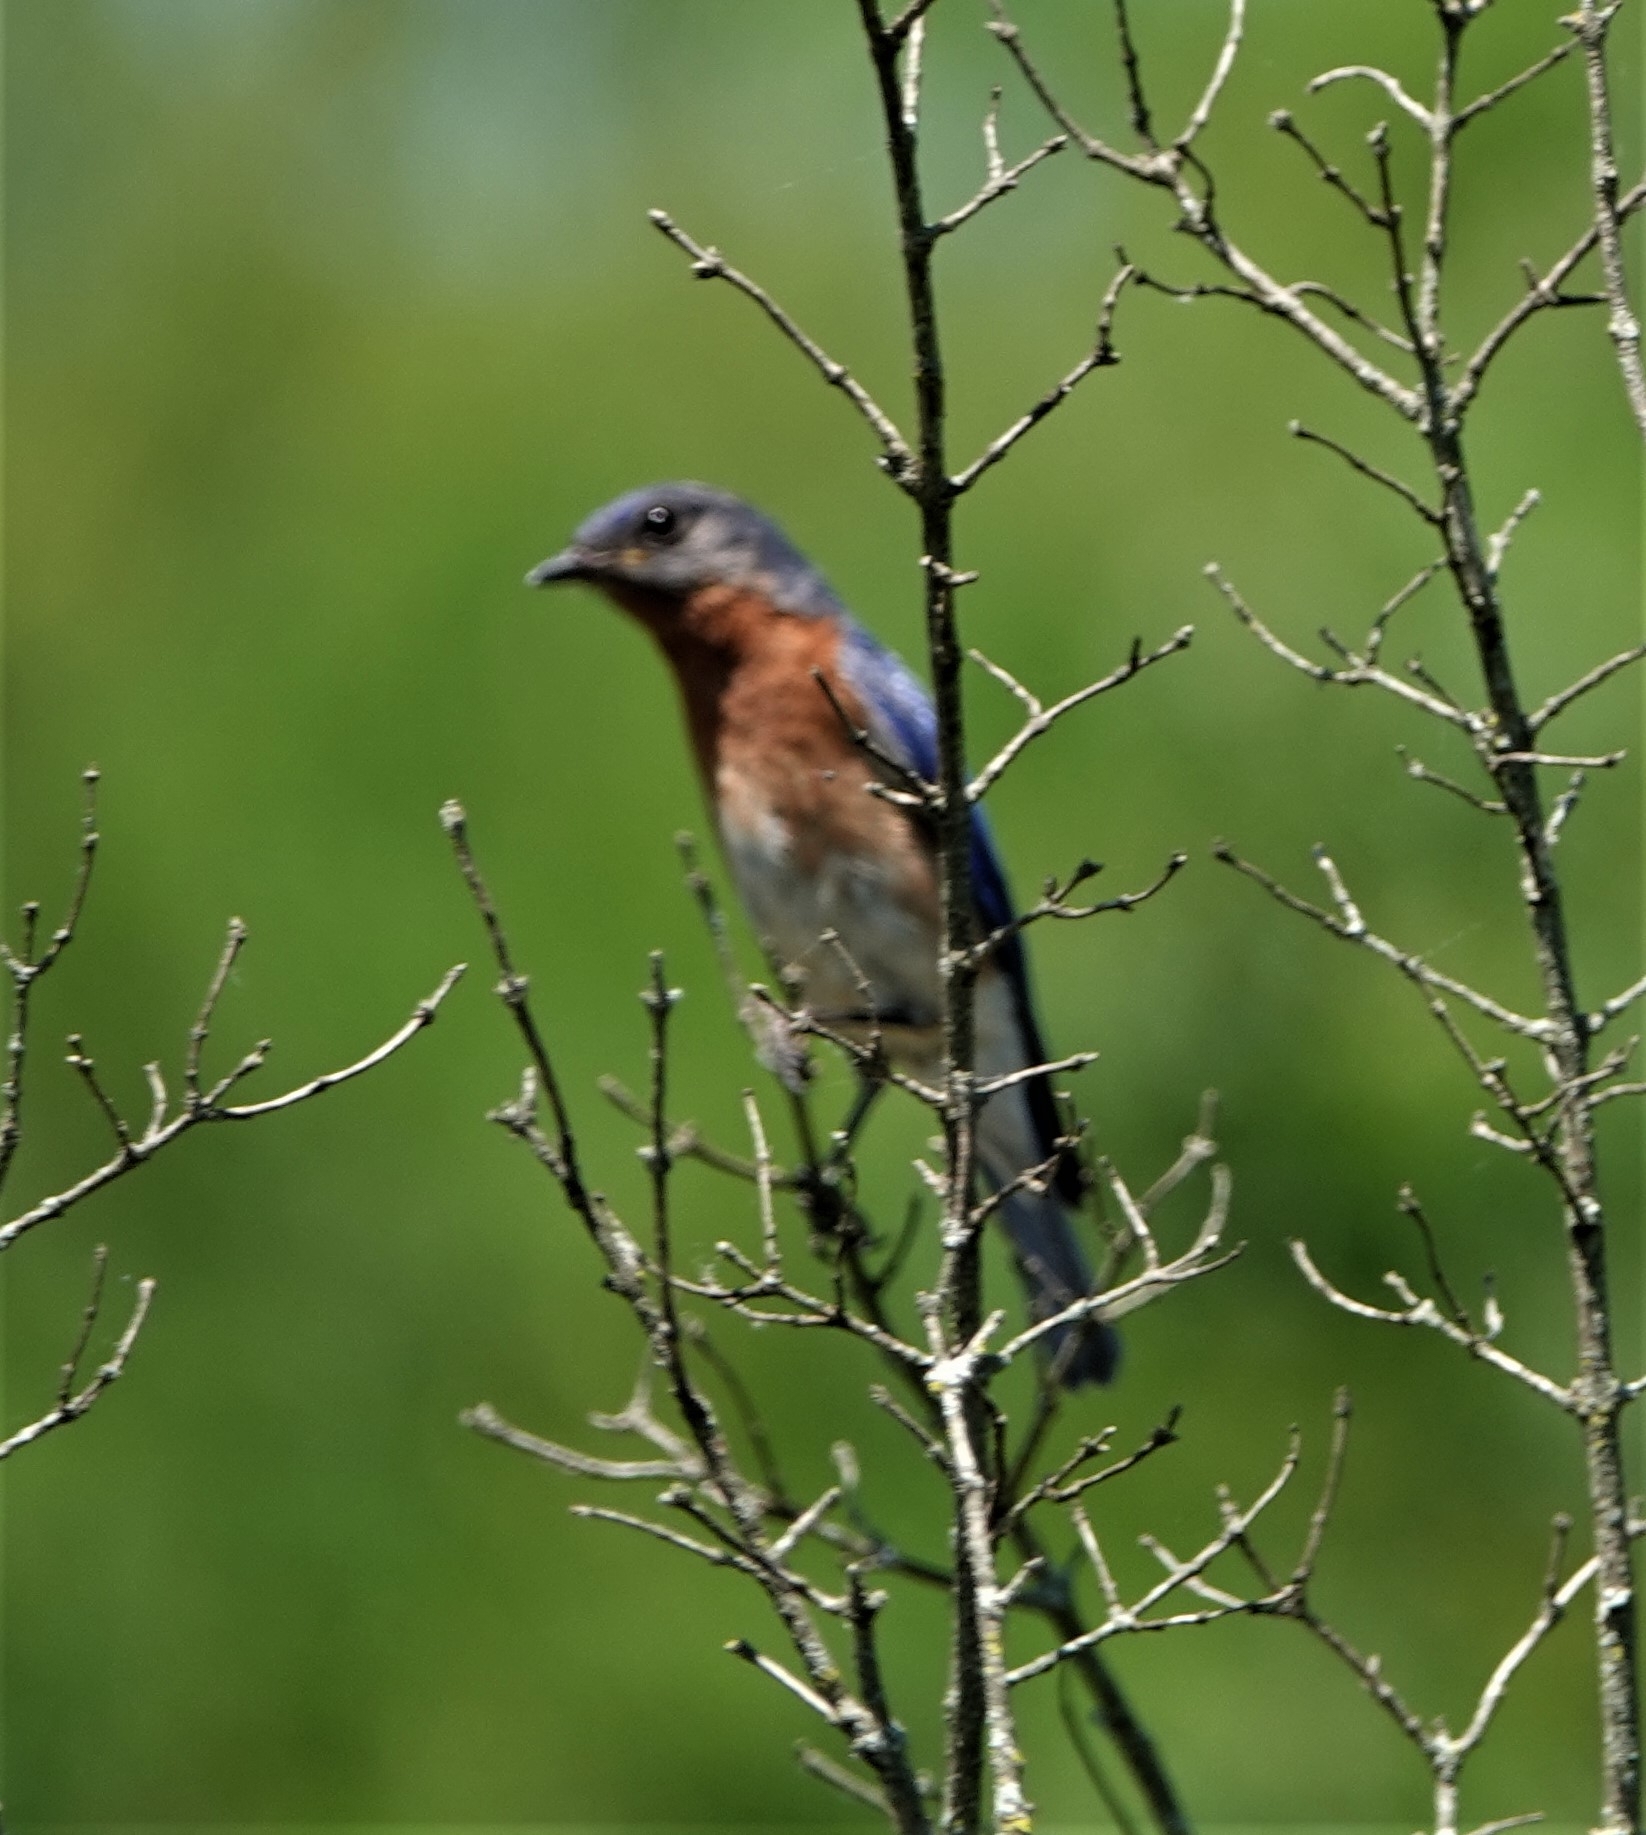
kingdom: Animalia
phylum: Chordata
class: Aves
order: Passeriformes
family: Turdidae
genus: Sialia
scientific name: Sialia sialis
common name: Eastern bluebird
